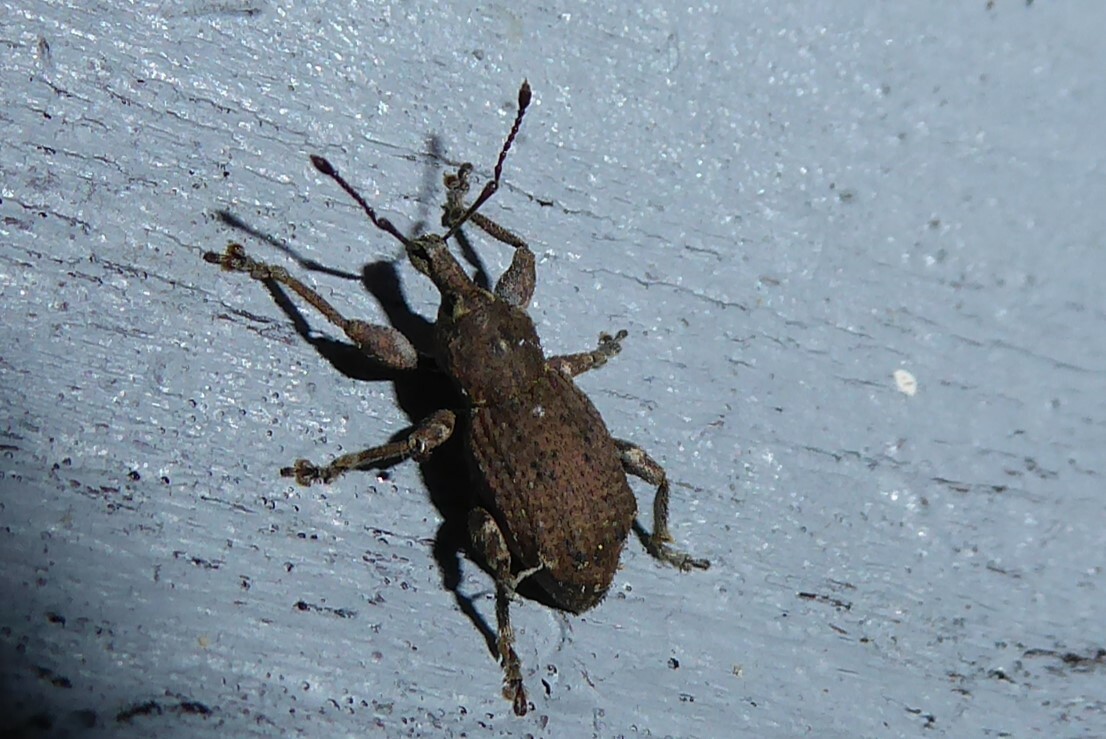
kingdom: Animalia
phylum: Arthropoda
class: Insecta
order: Coleoptera
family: Curculionidae
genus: Chalepistes
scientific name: Chalepistes rubidus
